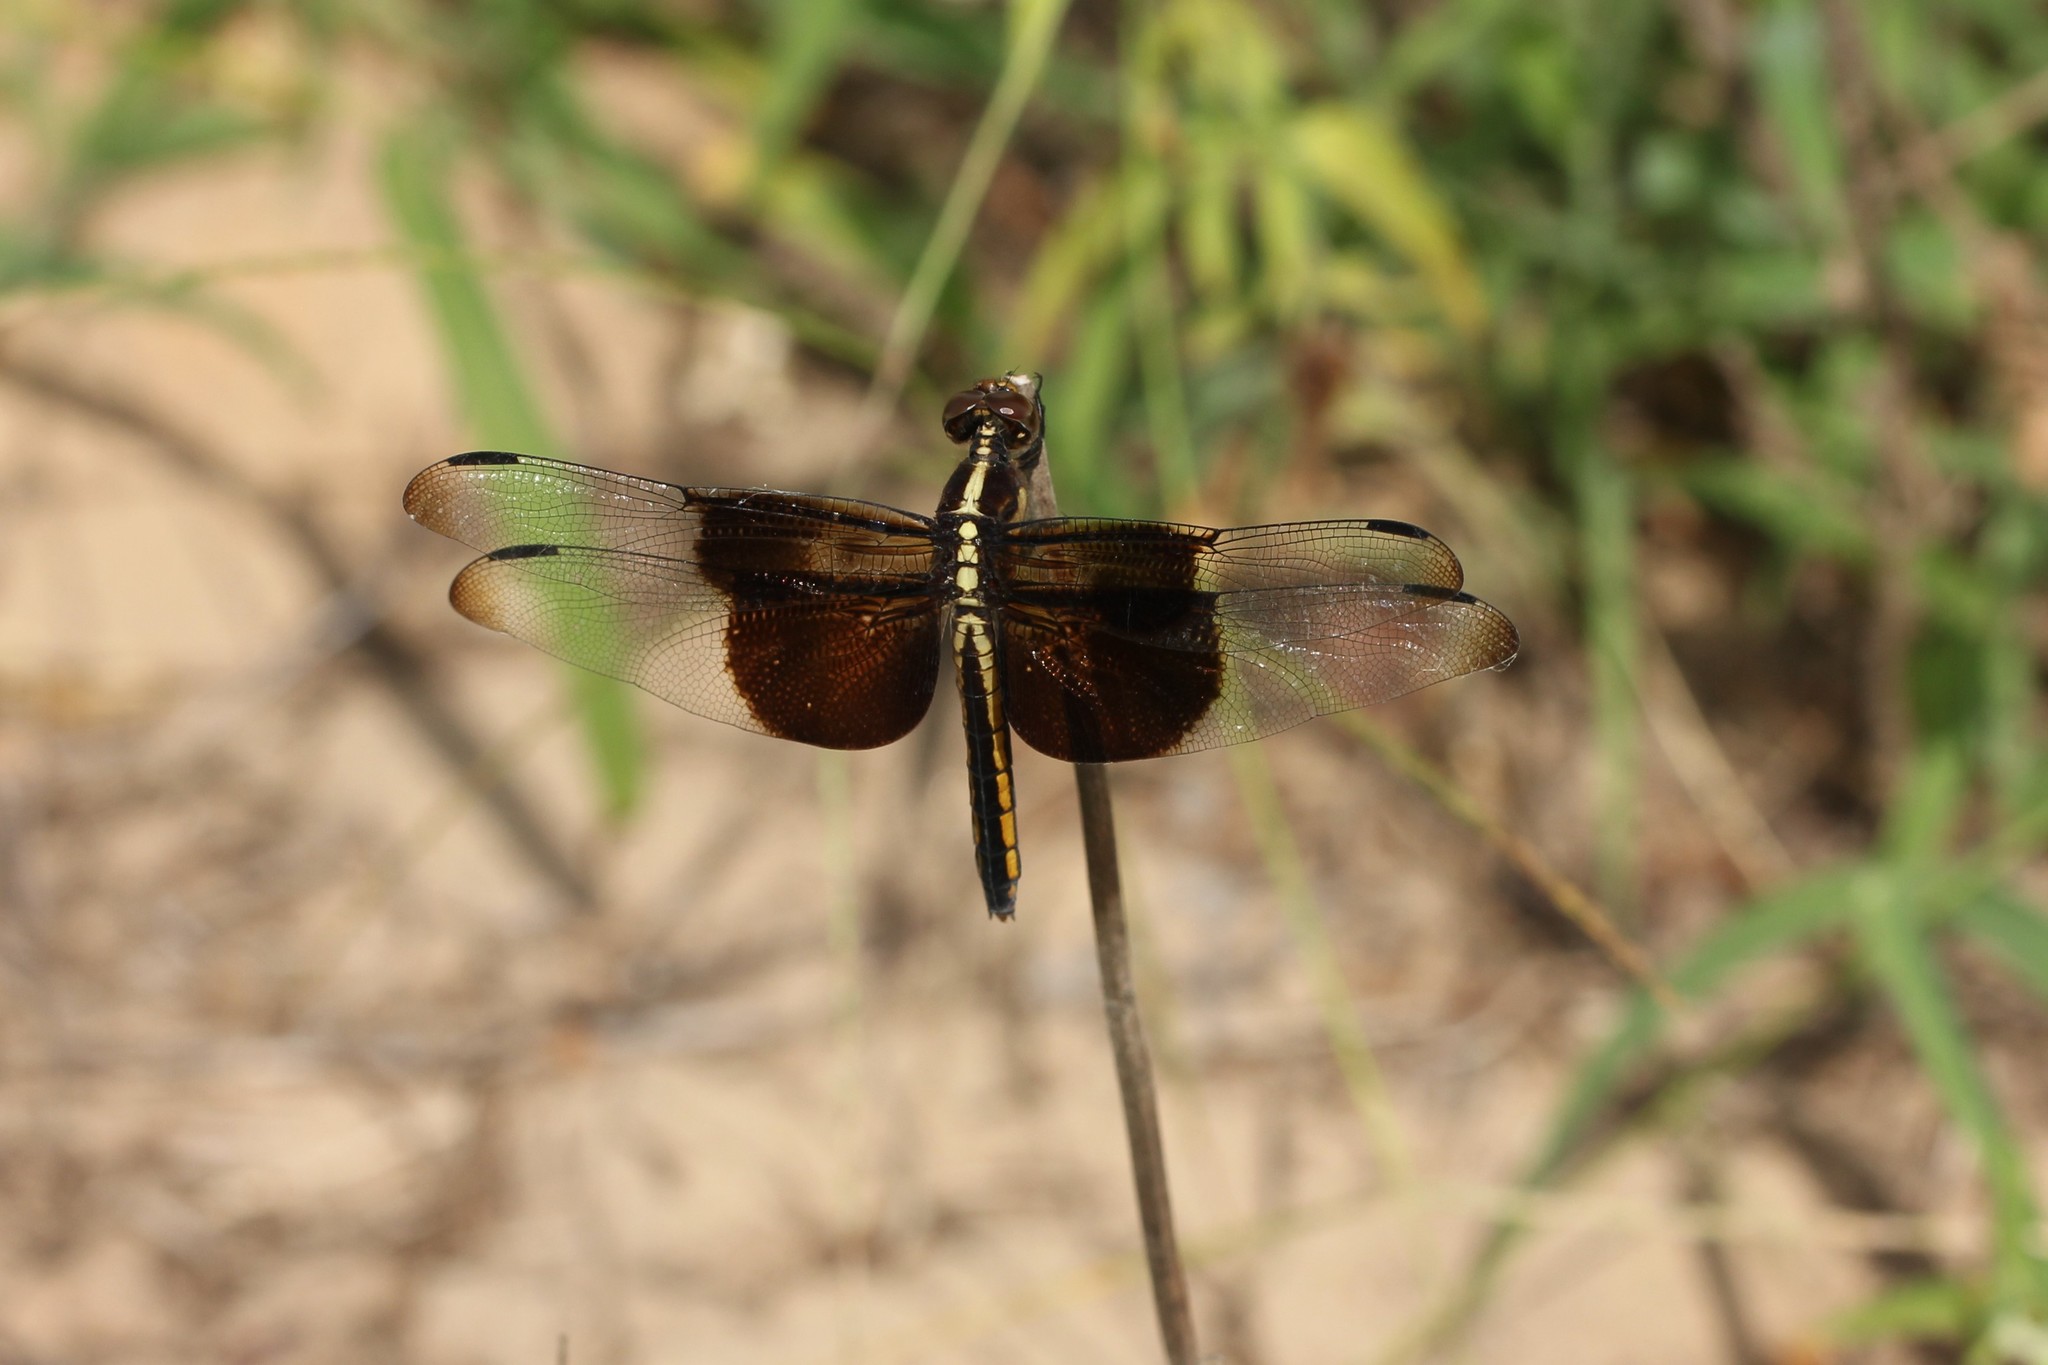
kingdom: Animalia
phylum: Arthropoda
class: Insecta
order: Odonata
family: Libellulidae
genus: Libellula
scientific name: Libellula luctuosa
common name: Widow skimmer
